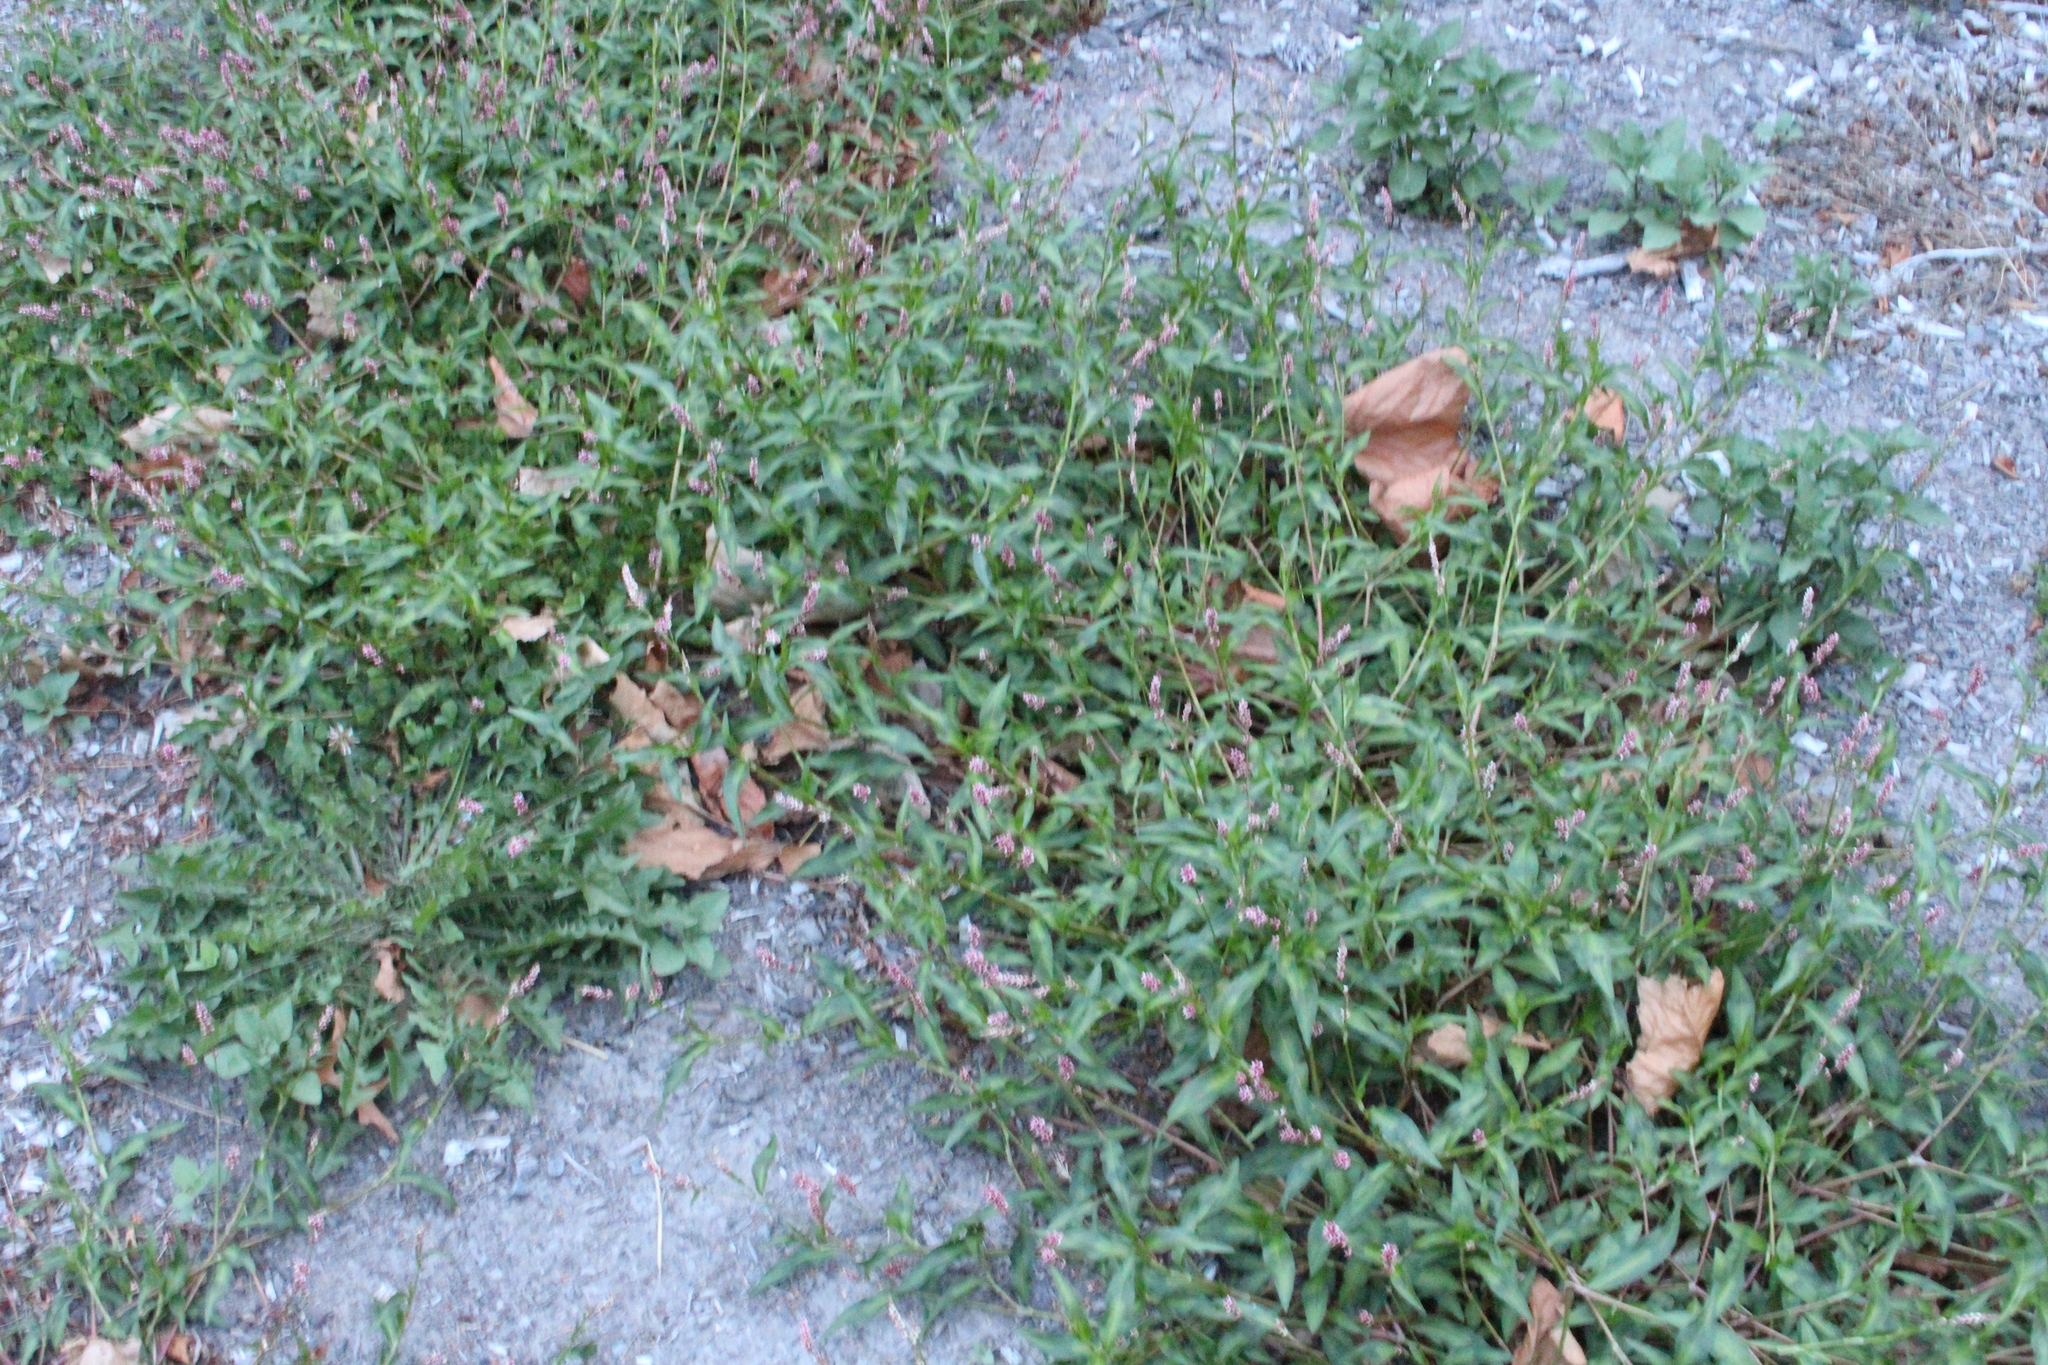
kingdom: Plantae
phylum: Tracheophyta
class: Magnoliopsida
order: Caryophyllales
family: Polygonaceae
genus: Persicaria
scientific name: Persicaria maculosa
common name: Redshank
